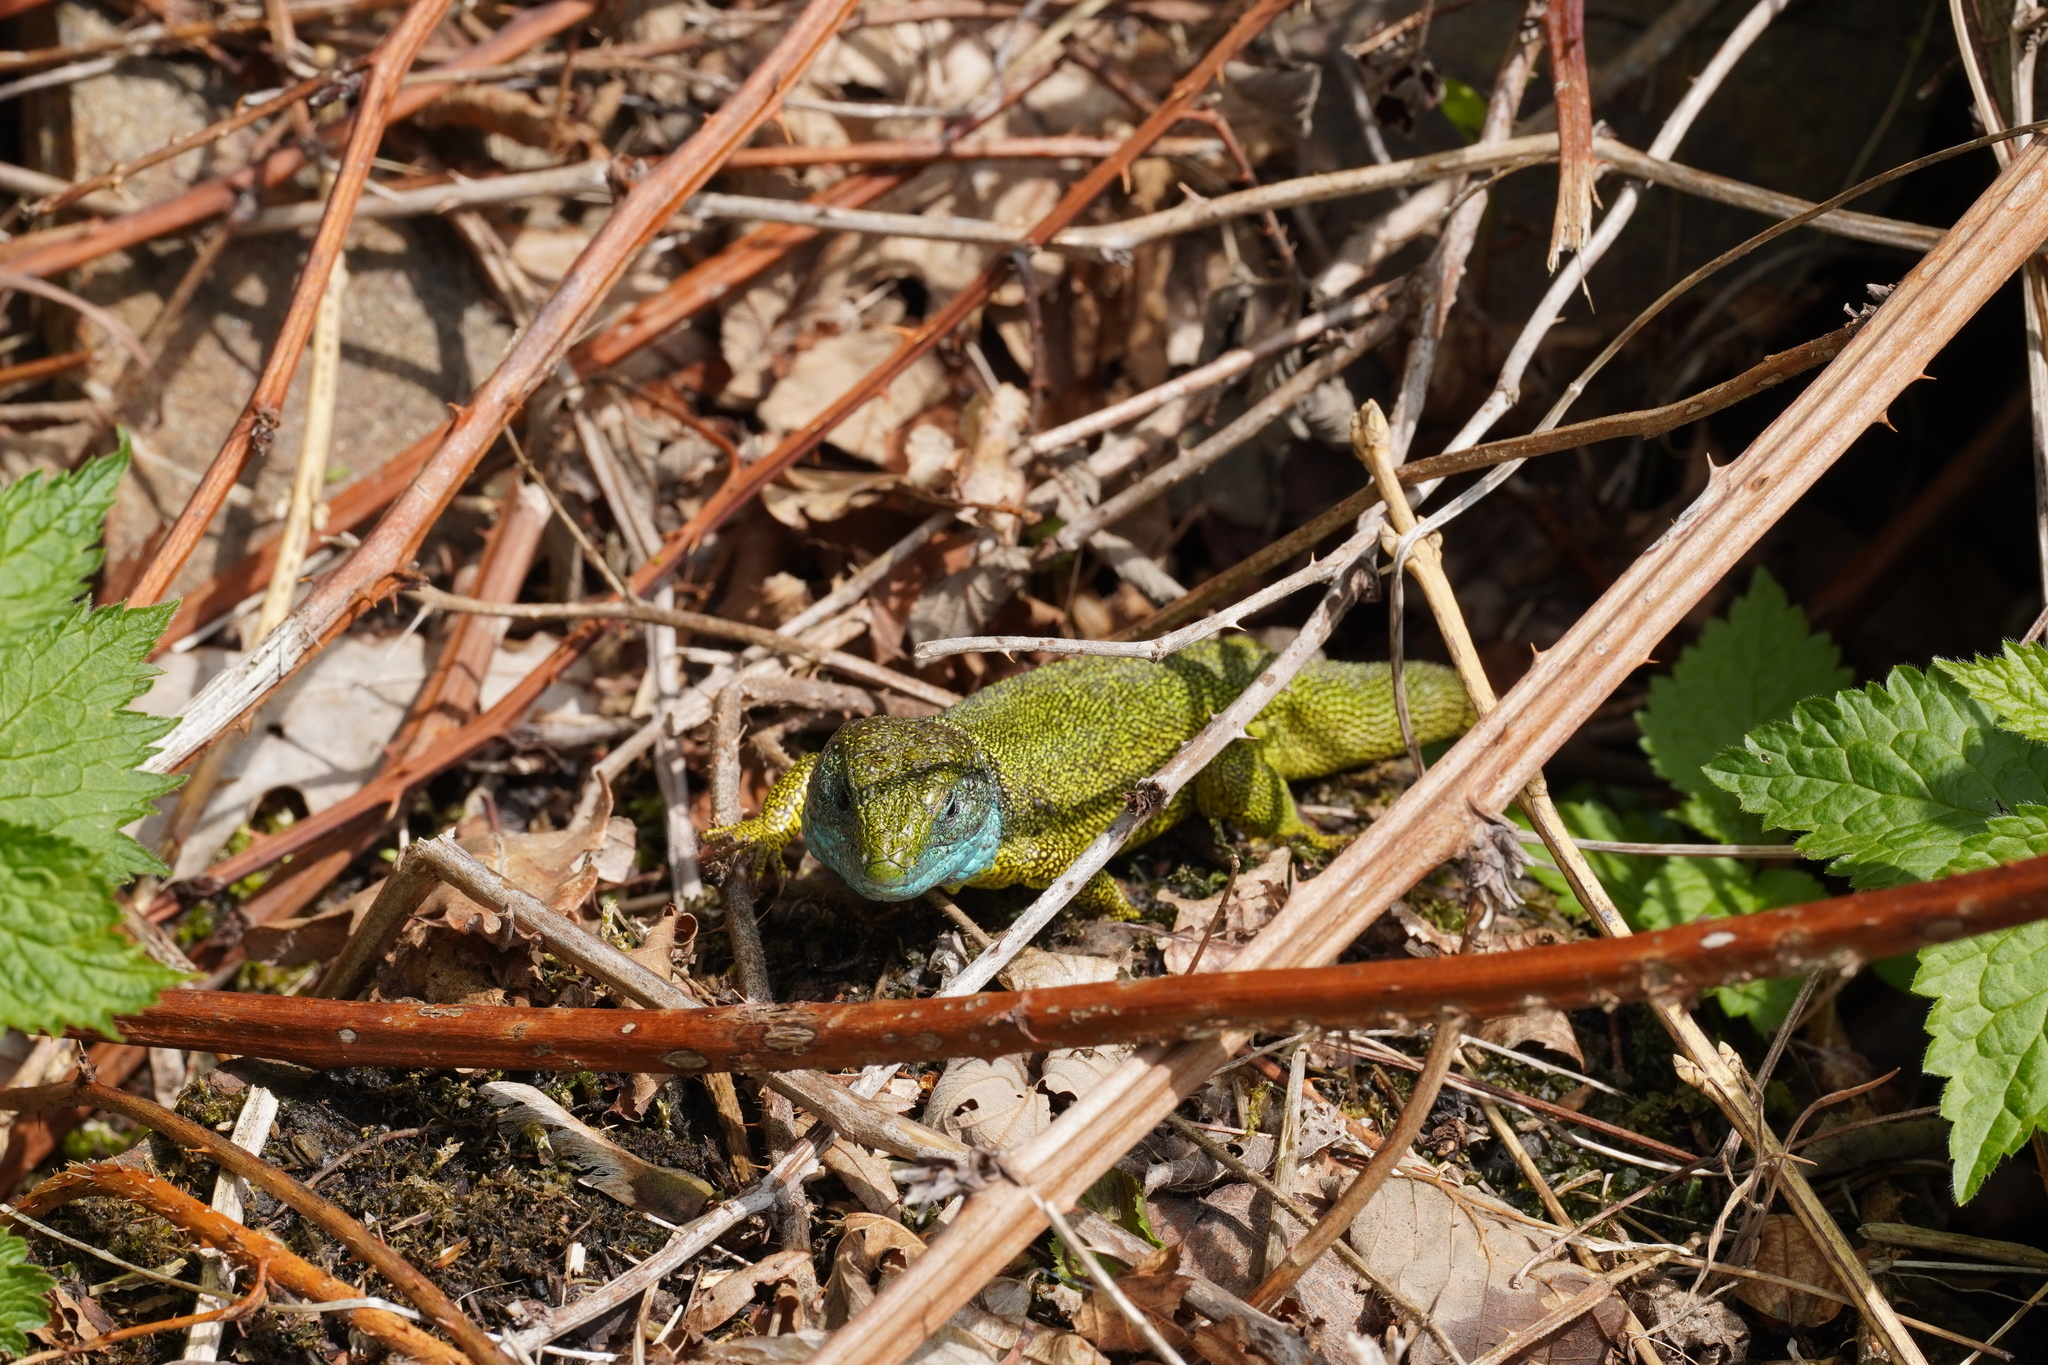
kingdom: Animalia
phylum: Chordata
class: Squamata
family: Lacertidae
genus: Lacerta
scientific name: Lacerta viridis
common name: European green lizard
